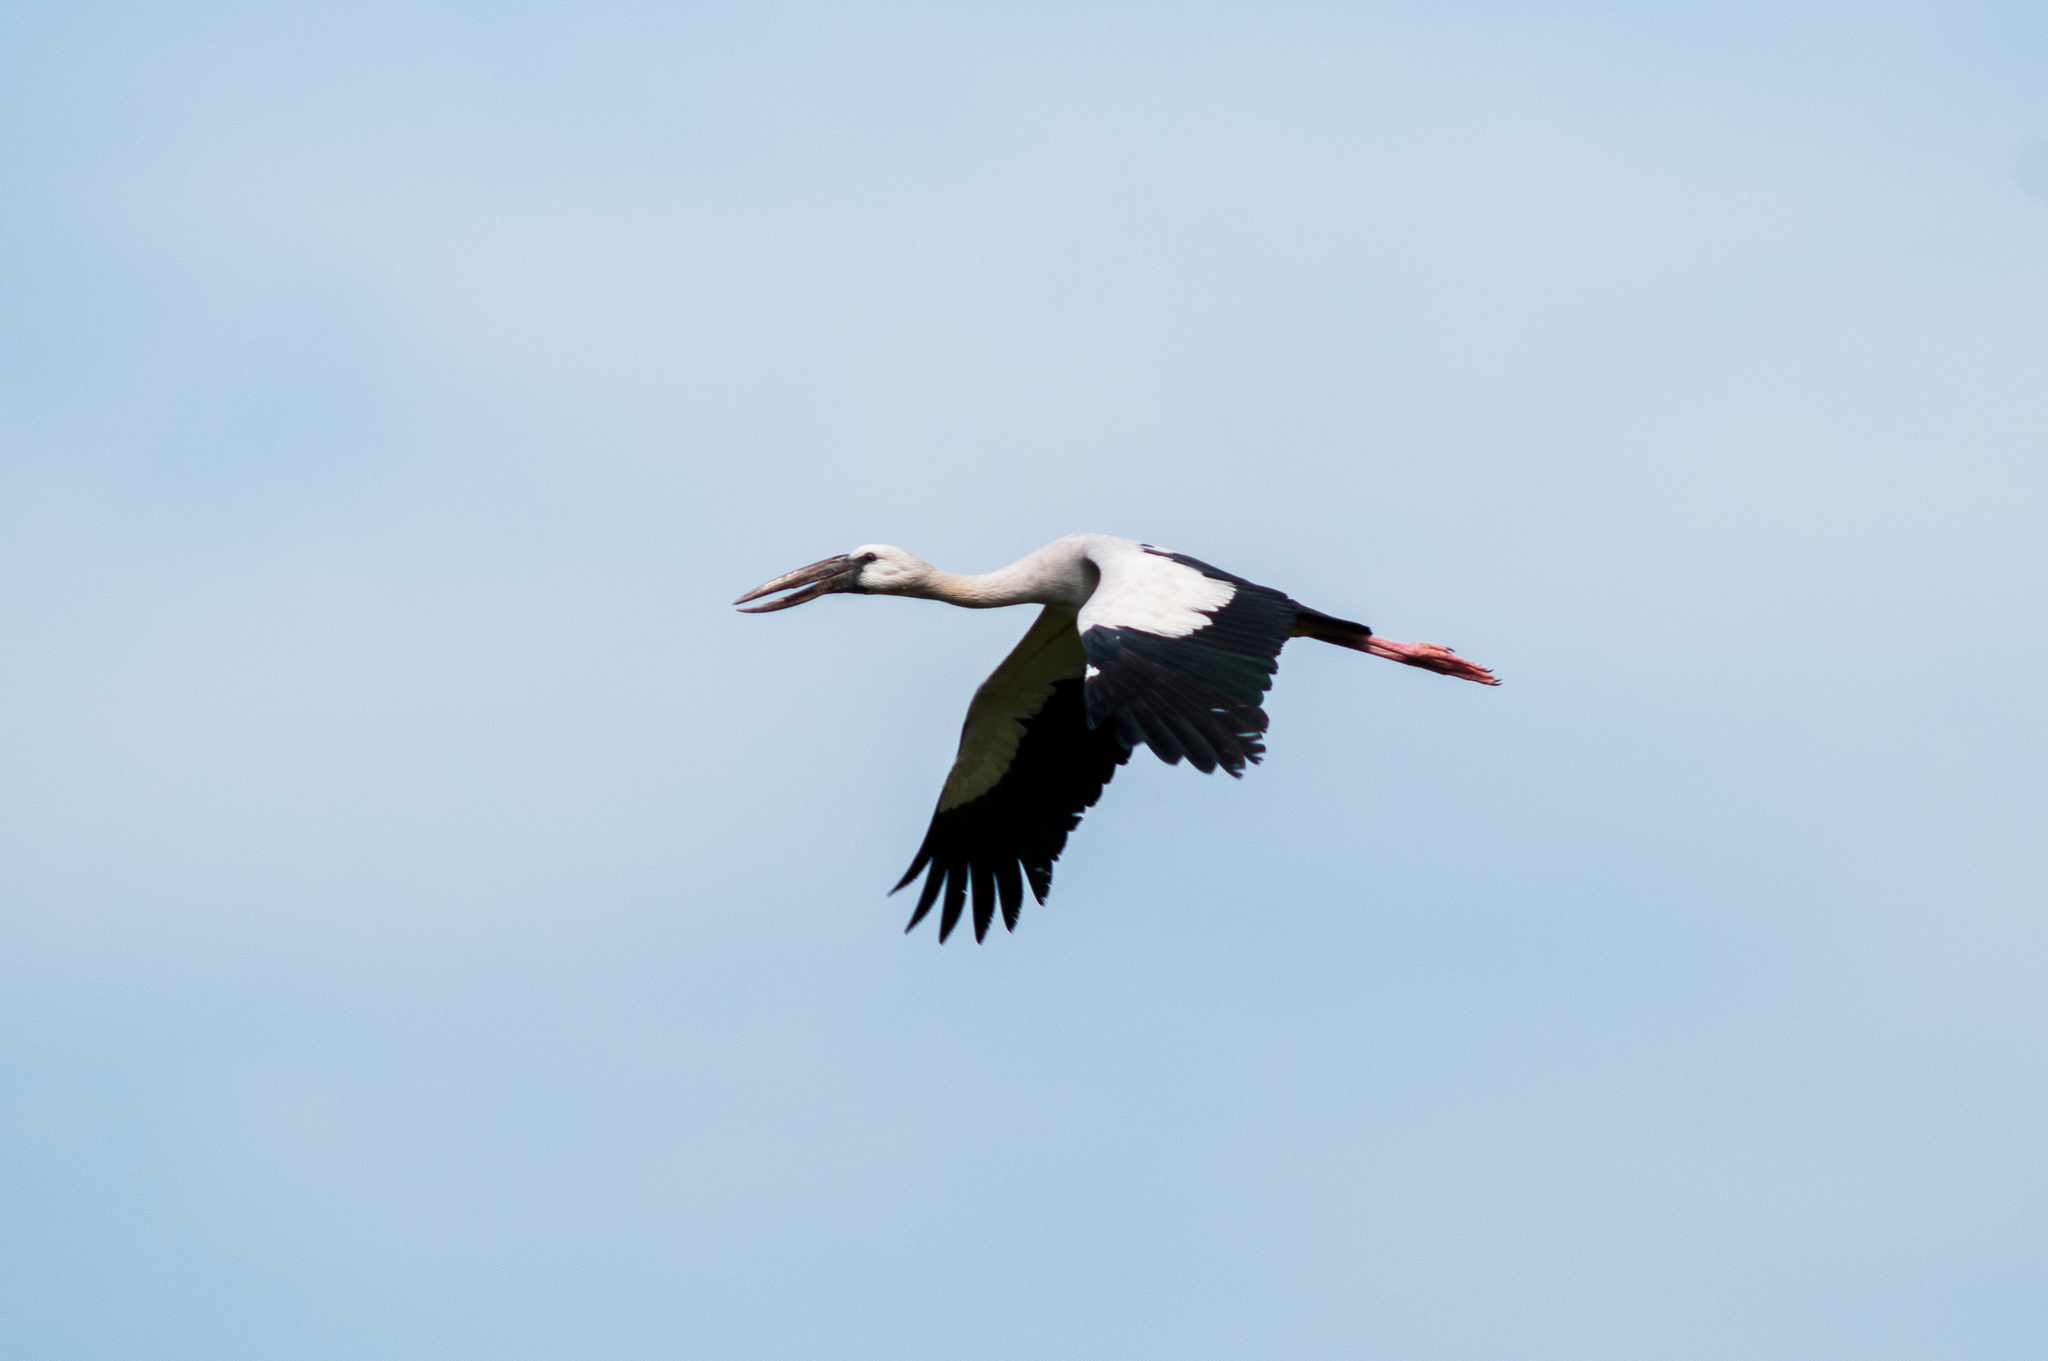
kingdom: Animalia
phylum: Chordata
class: Aves
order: Ciconiiformes
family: Ciconiidae
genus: Anastomus
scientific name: Anastomus oscitans
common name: Asian openbill
